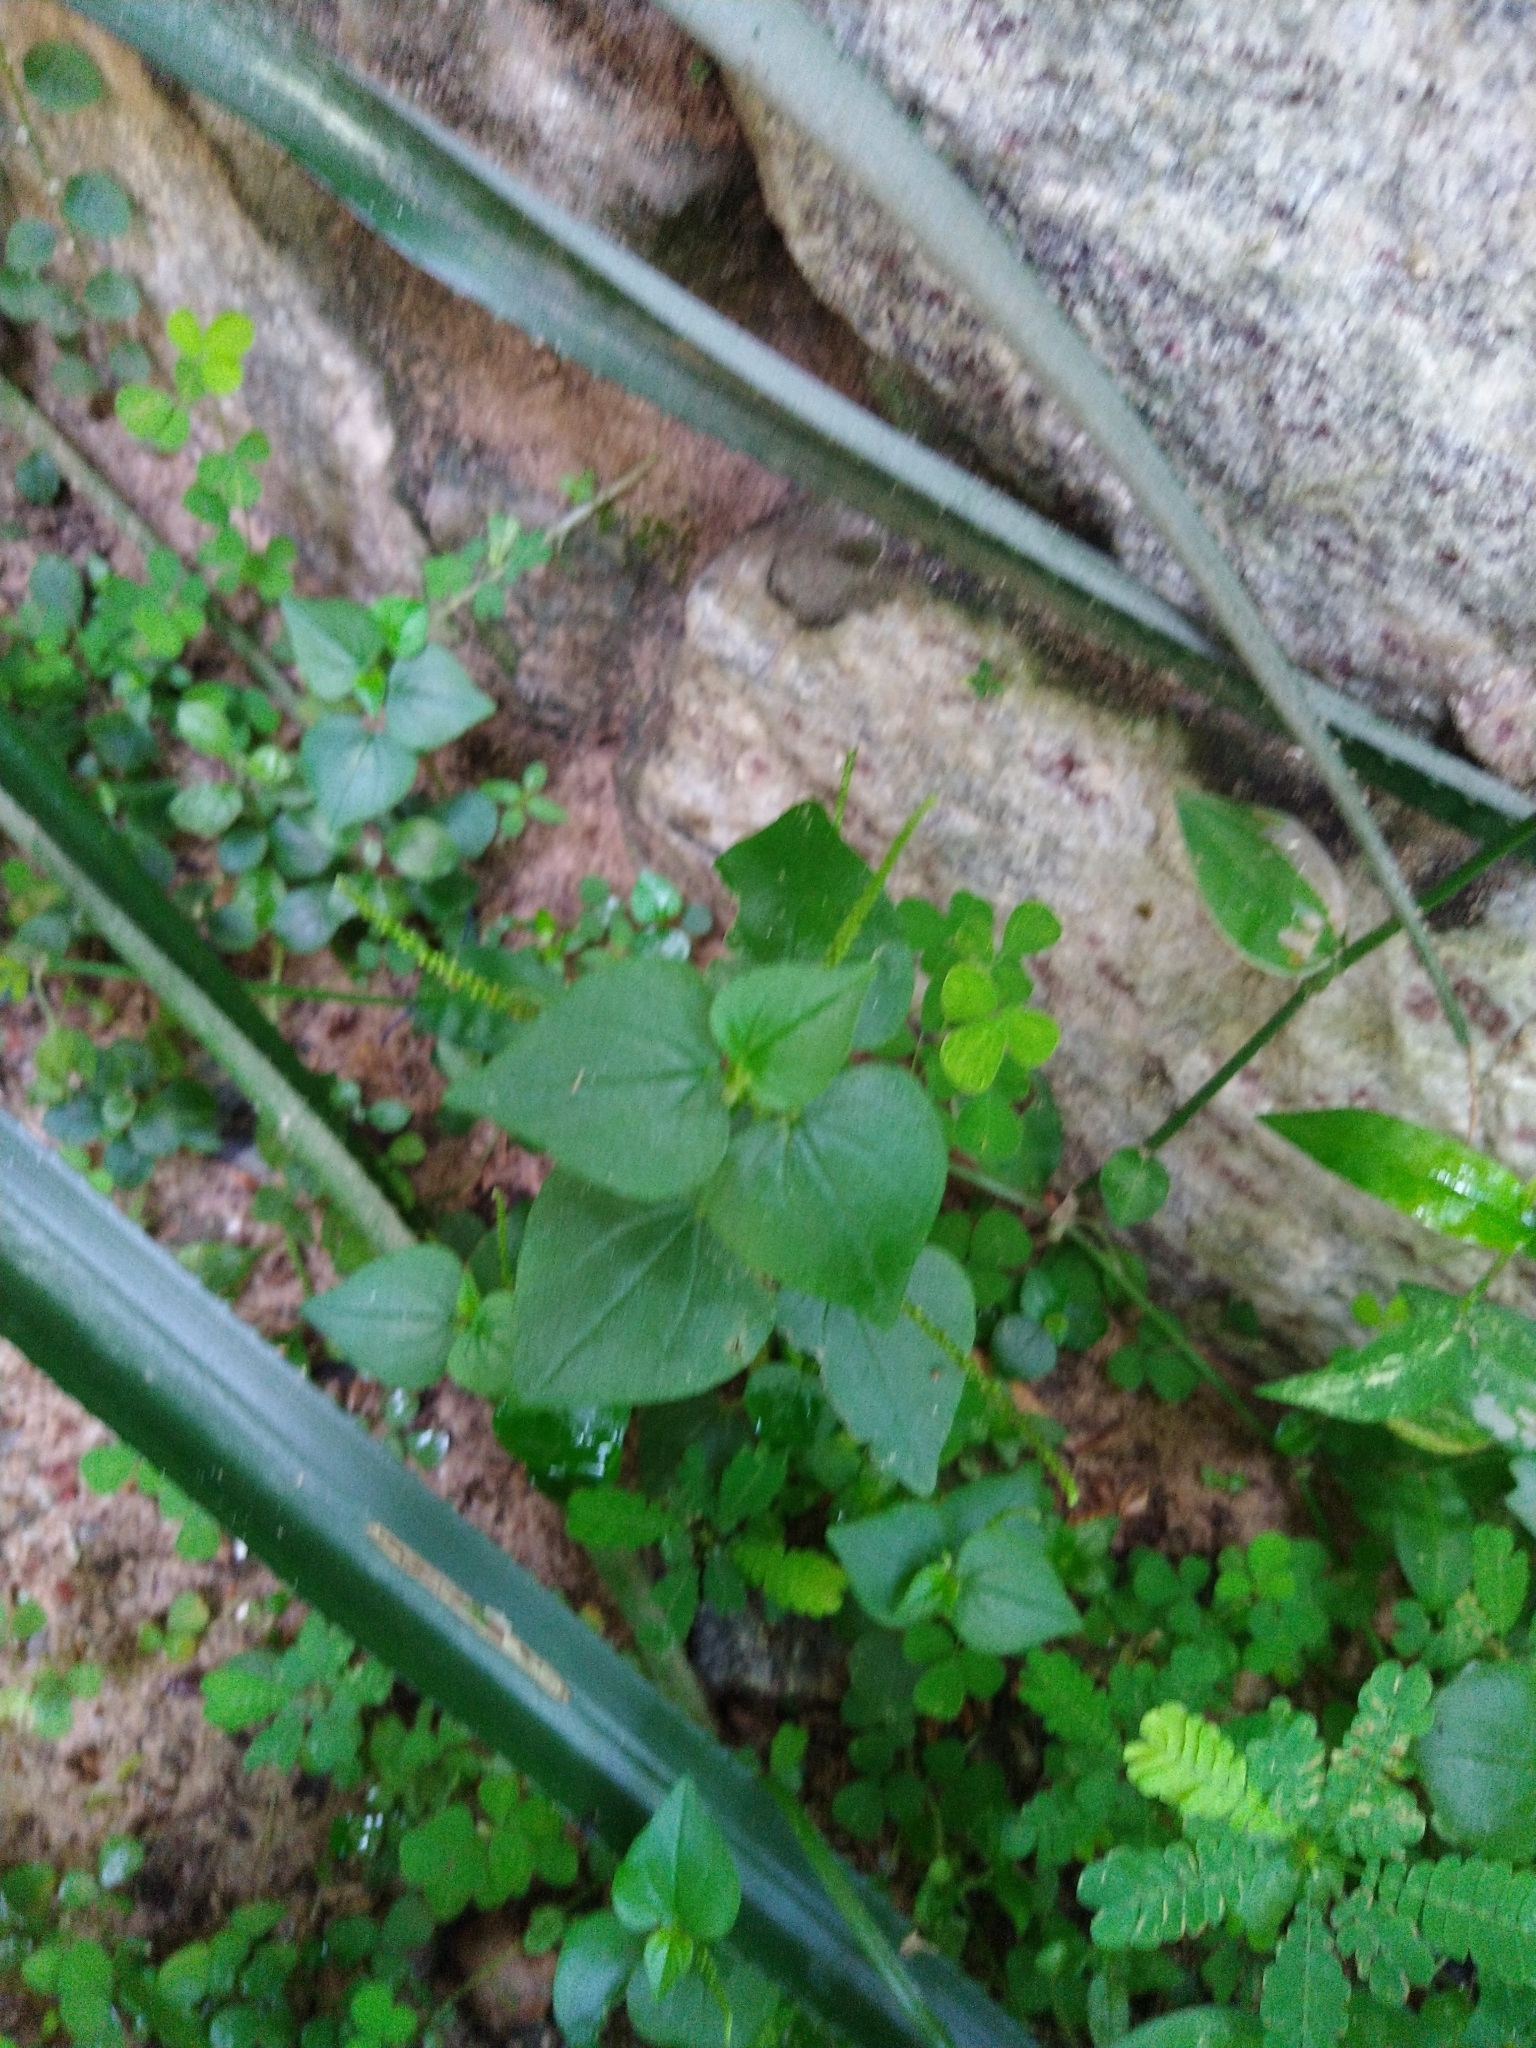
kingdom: Plantae
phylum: Tracheophyta
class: Magnoliopsida
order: Piperales
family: Piperaceae
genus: Peperomia
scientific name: Peperomia pellucida
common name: Man to man
